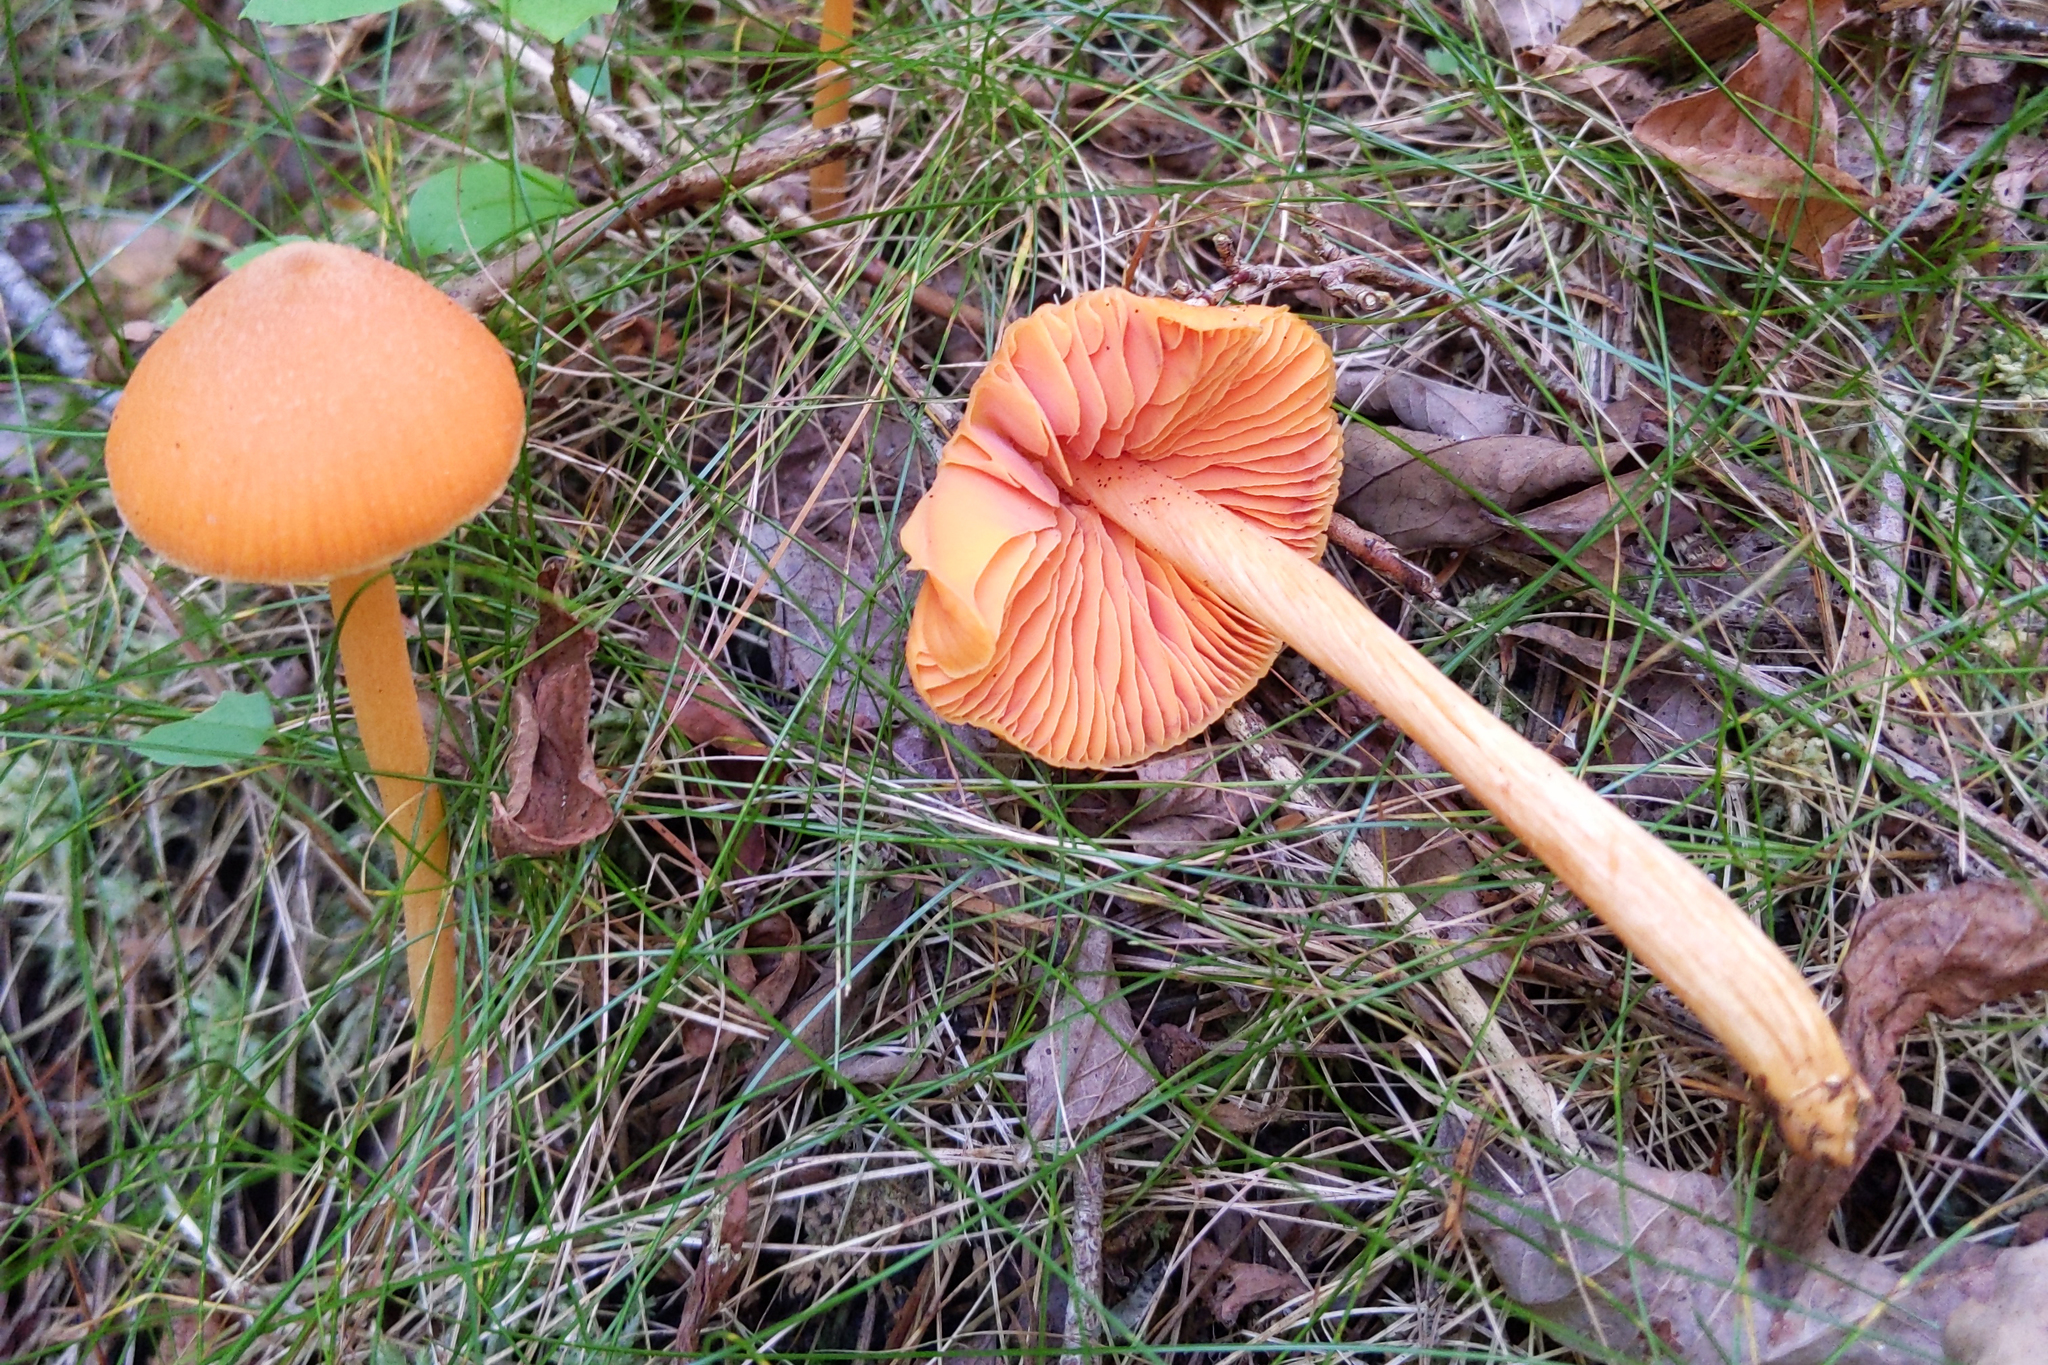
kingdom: Fungi
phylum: Basidiomycota
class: Agaricomycetes
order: Agaricales
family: Entolomataceae
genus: Entoloma
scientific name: Entoloma quadratum
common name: Salmon pinkgill
